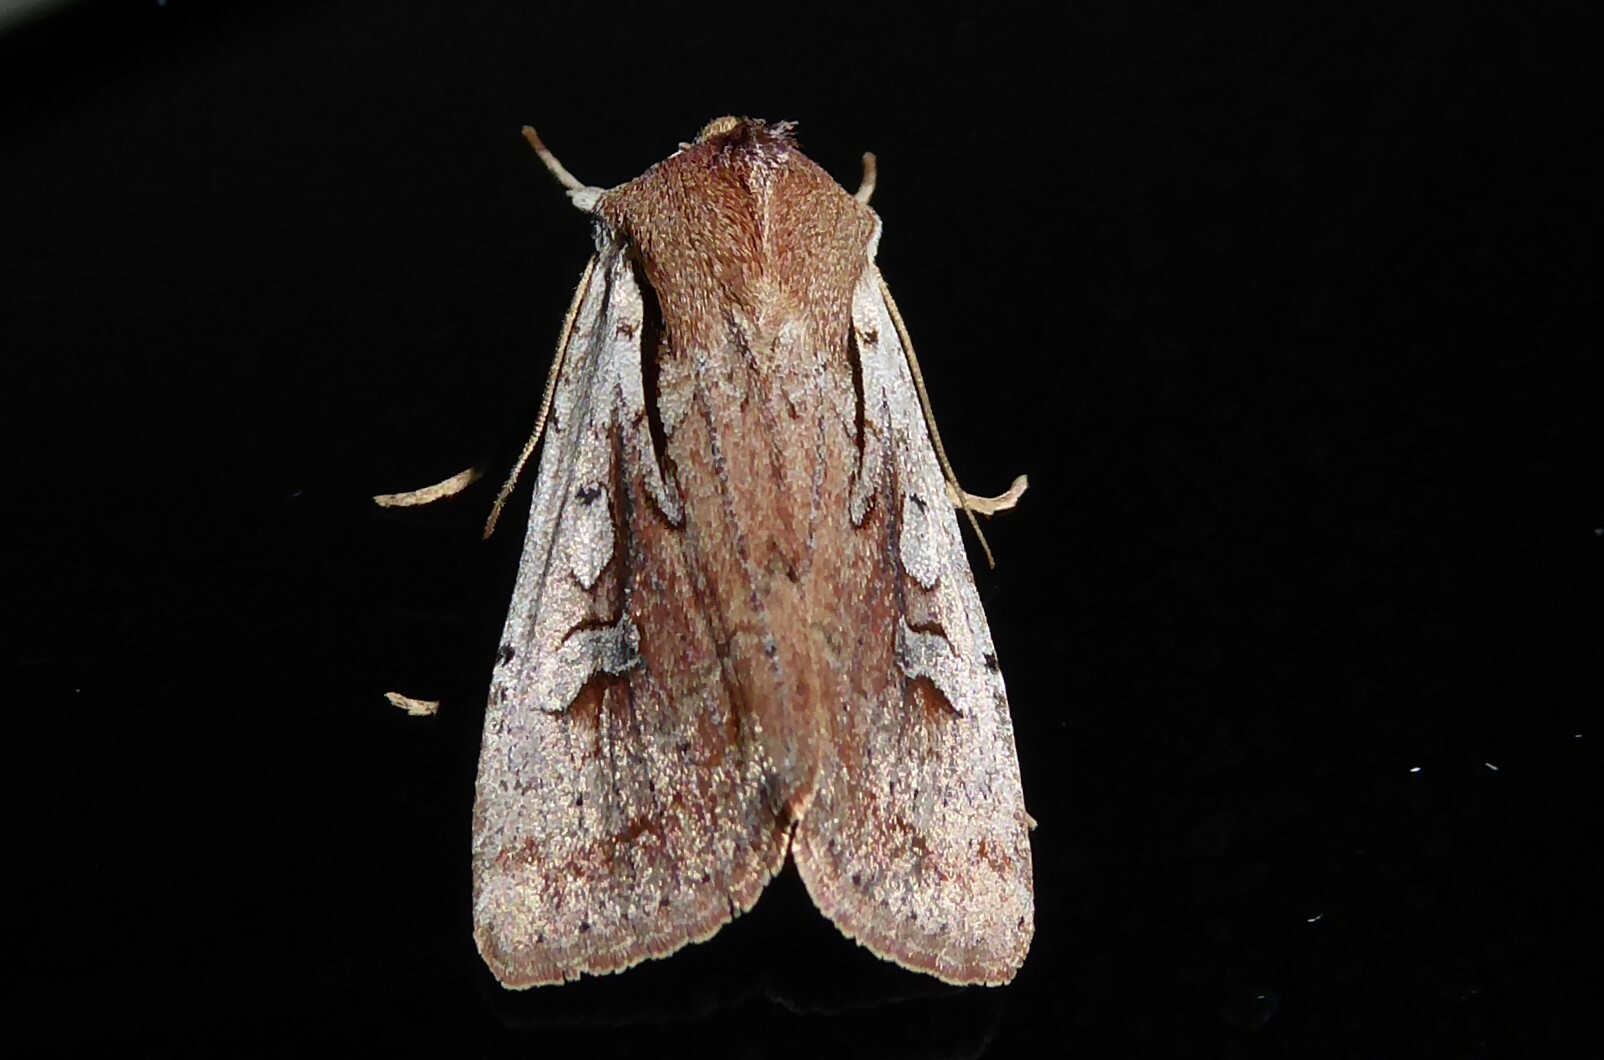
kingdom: Animalia
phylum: Arthropoda
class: Insecta
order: Lepidoptera
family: Noctuidae
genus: Ichneutica
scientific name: Ichneutica atristriga
